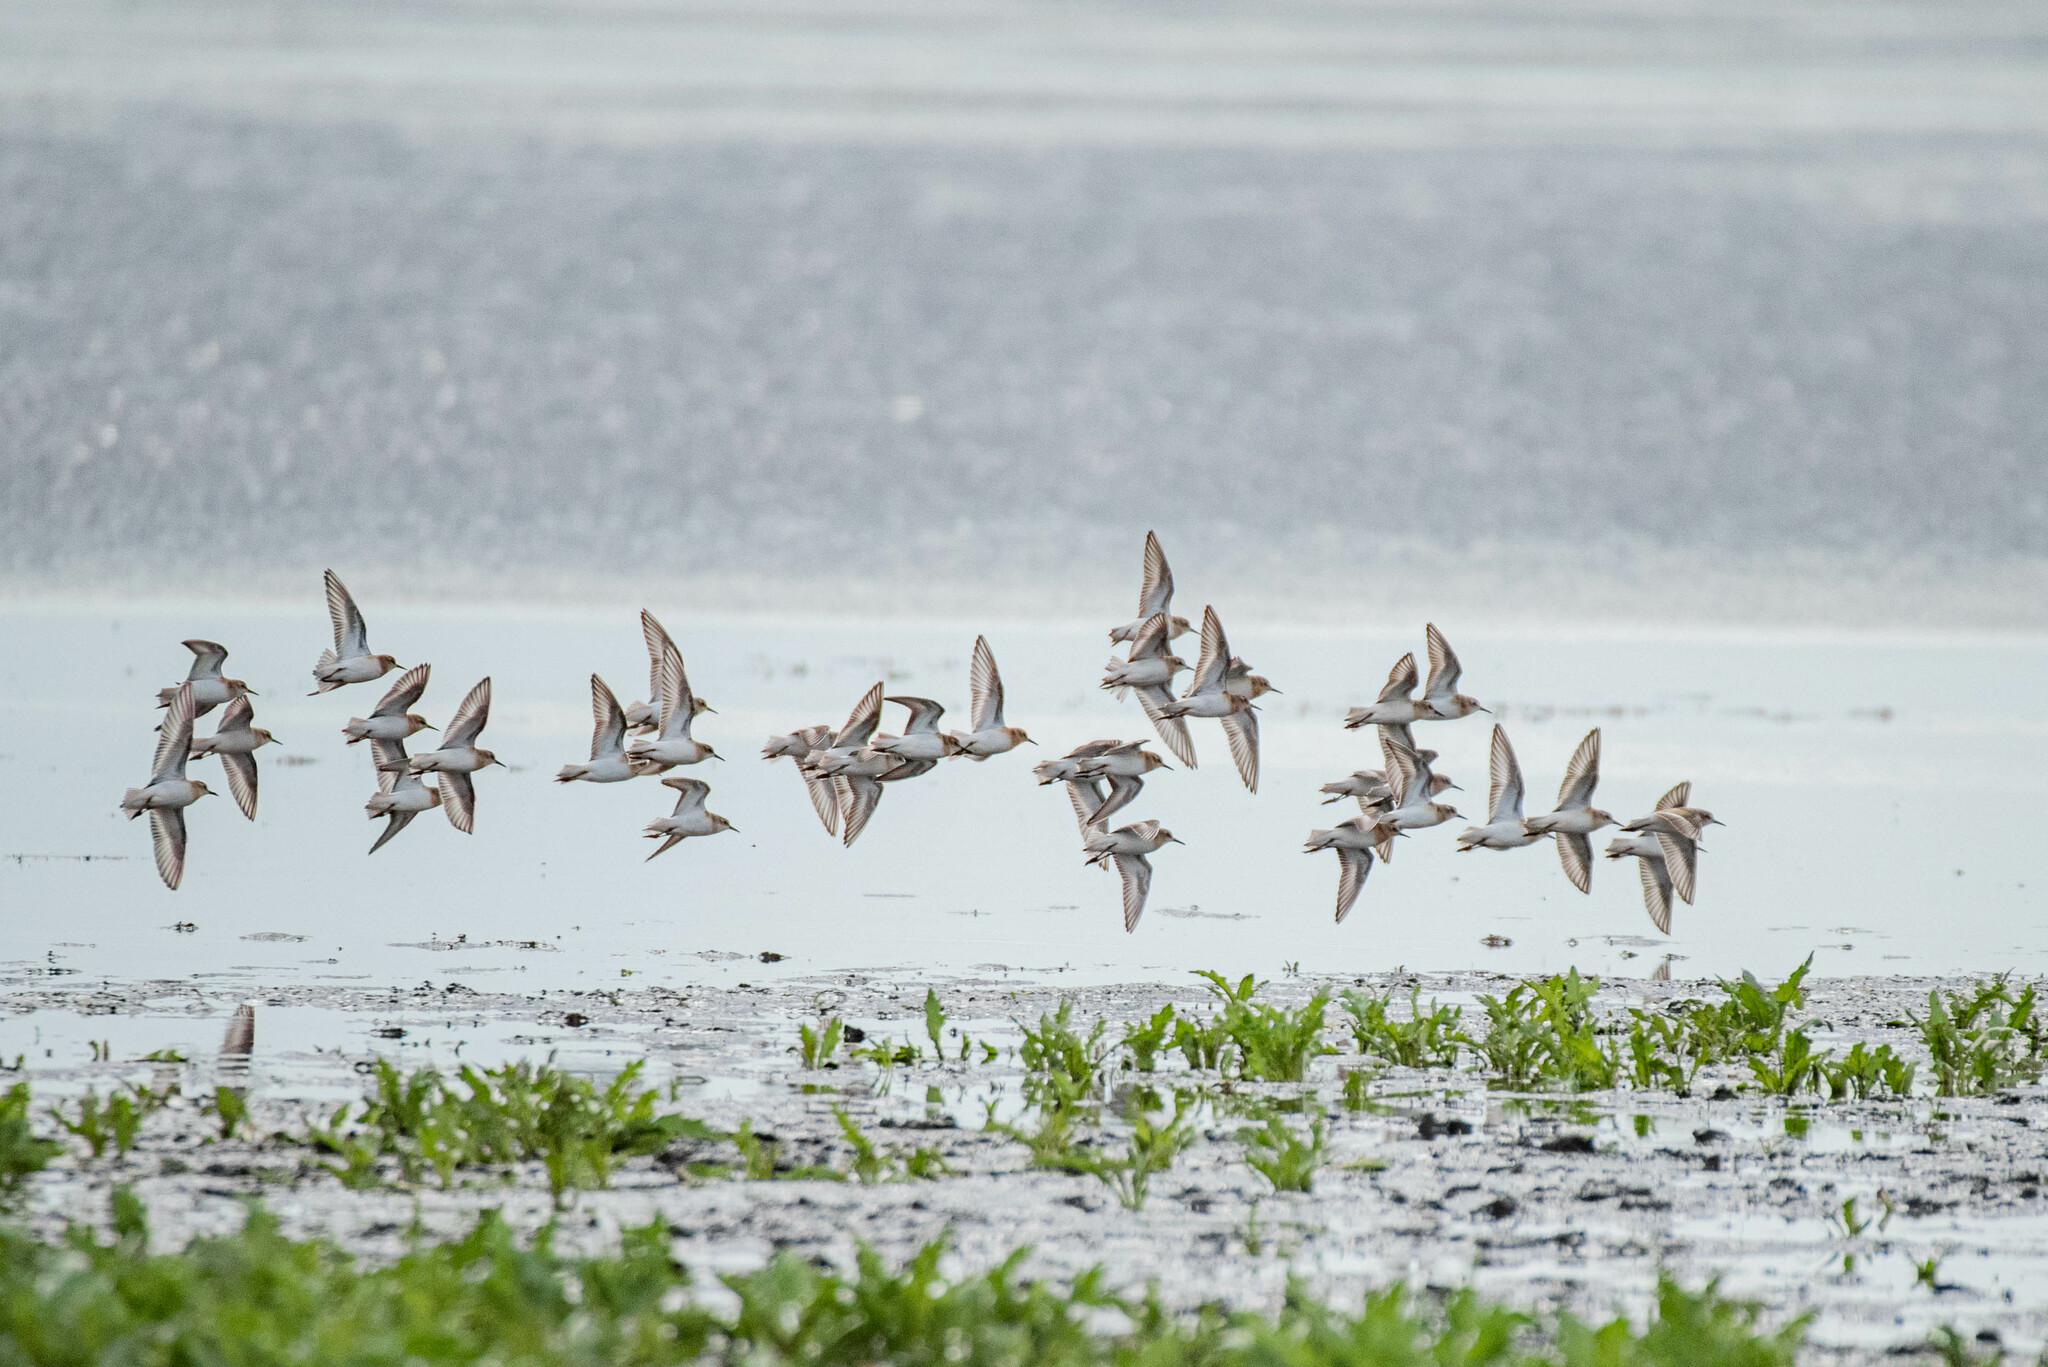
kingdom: Animalia
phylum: Chordata
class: Aves
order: Charadriiformes
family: Scolopacidae
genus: Calidris
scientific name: Calidris minuta
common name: Little stint
